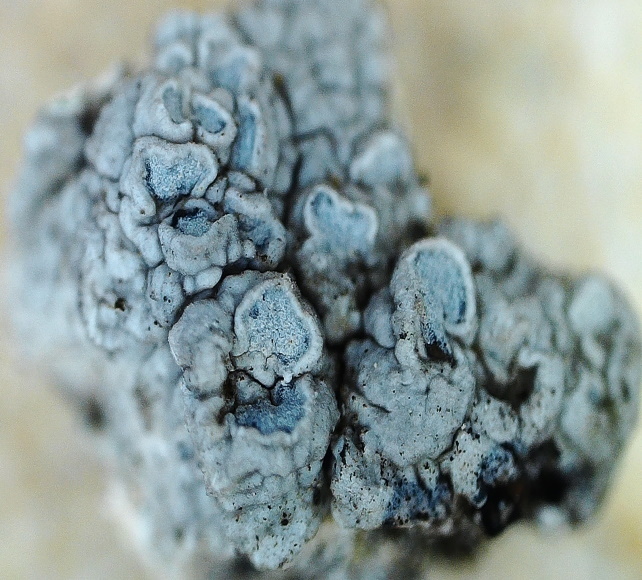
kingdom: Fungi
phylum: Ascomycota
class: Lecanoromycetes
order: Lecanorales
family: Lecanoraceae
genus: Glaucomaria
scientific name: Glaucomaria rupicola
